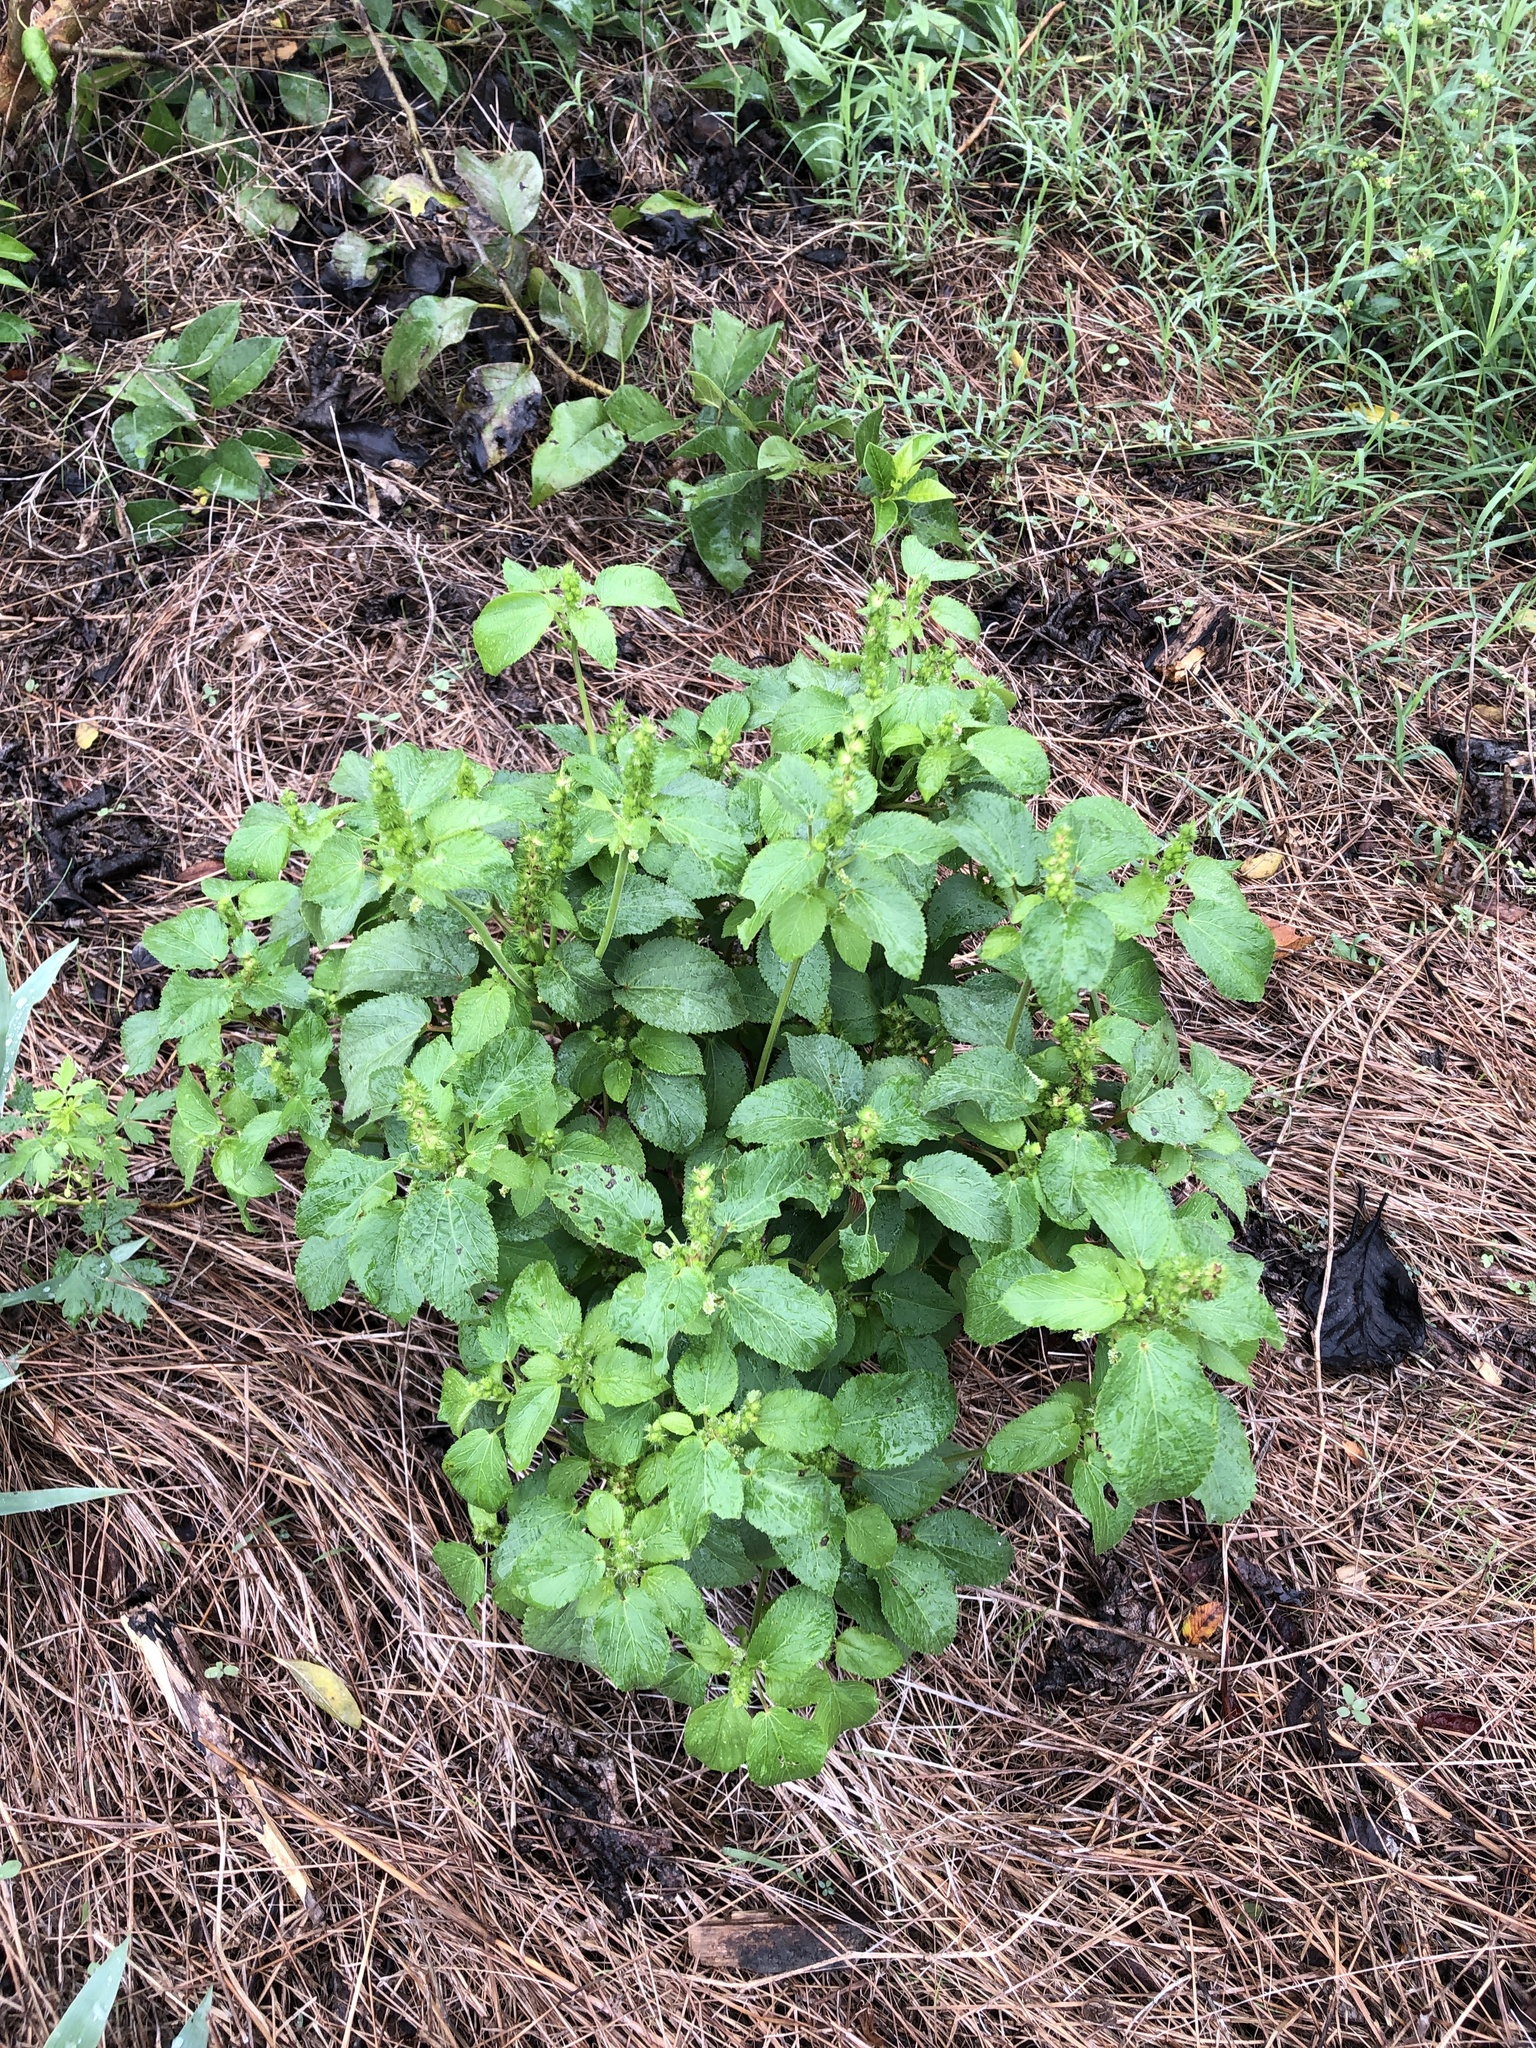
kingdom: Plantae
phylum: Tracheophyta
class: Magnoliopsida
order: Malpighiales
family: Euphorbiaceae
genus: Acalypha
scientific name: Acalypha ostryifolia
